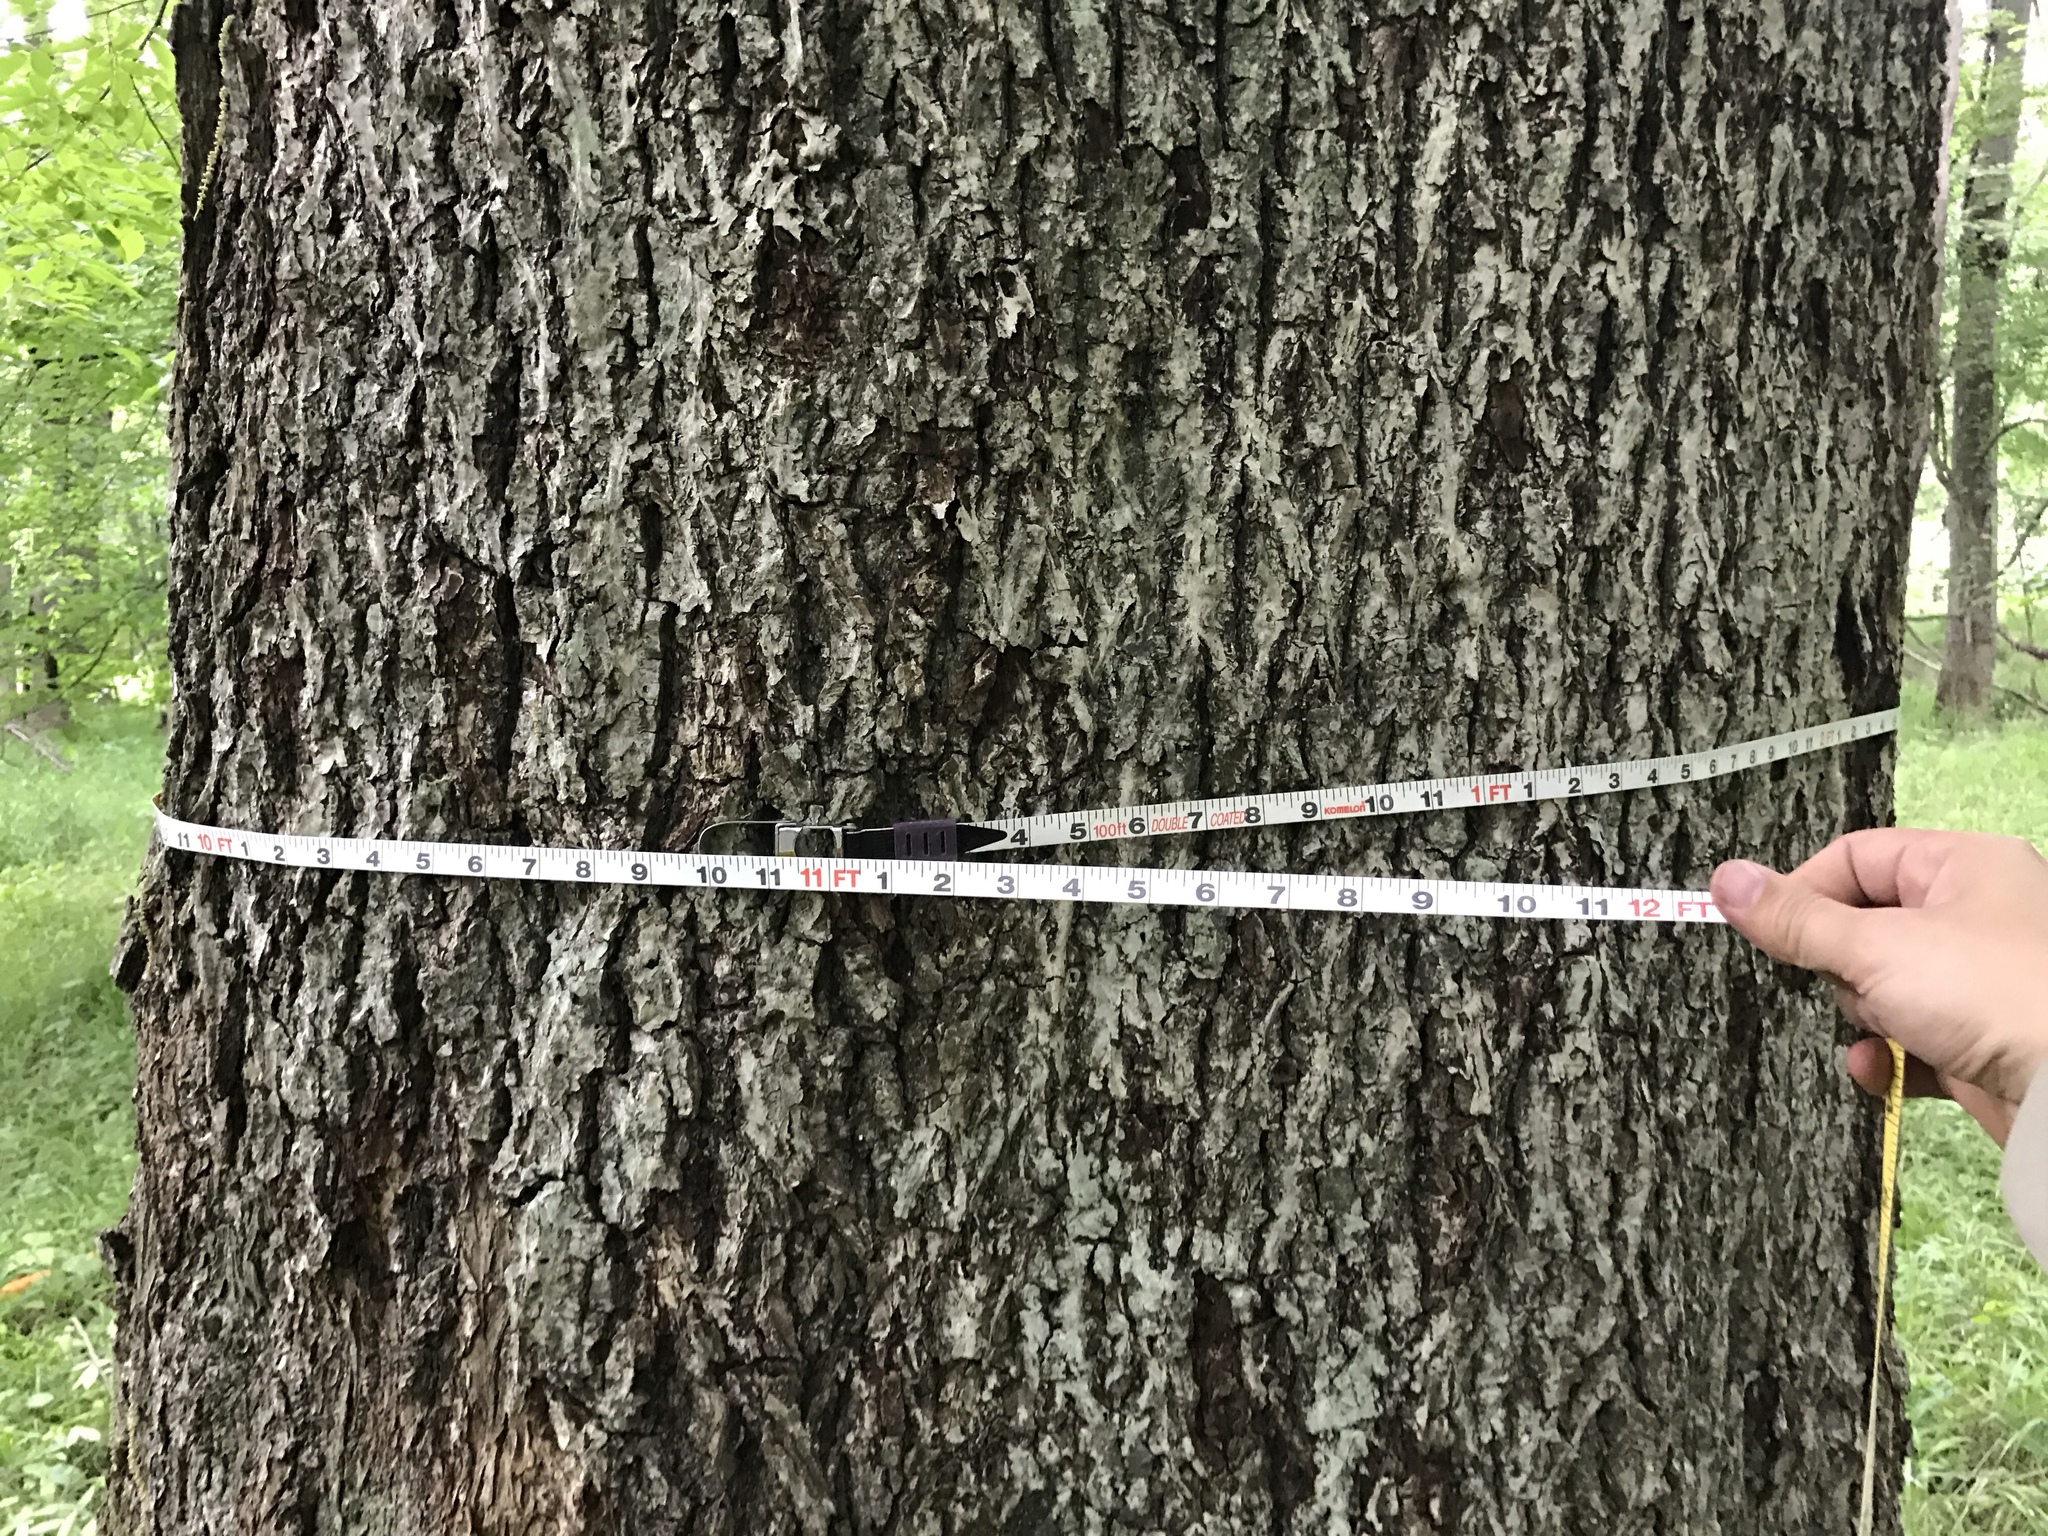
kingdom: Plantae
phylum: Tracheophyta
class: Magnoliopsida
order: Fagales
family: Juglandaceae
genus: Carya
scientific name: Carya cordiformis
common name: Bitternut hickory
